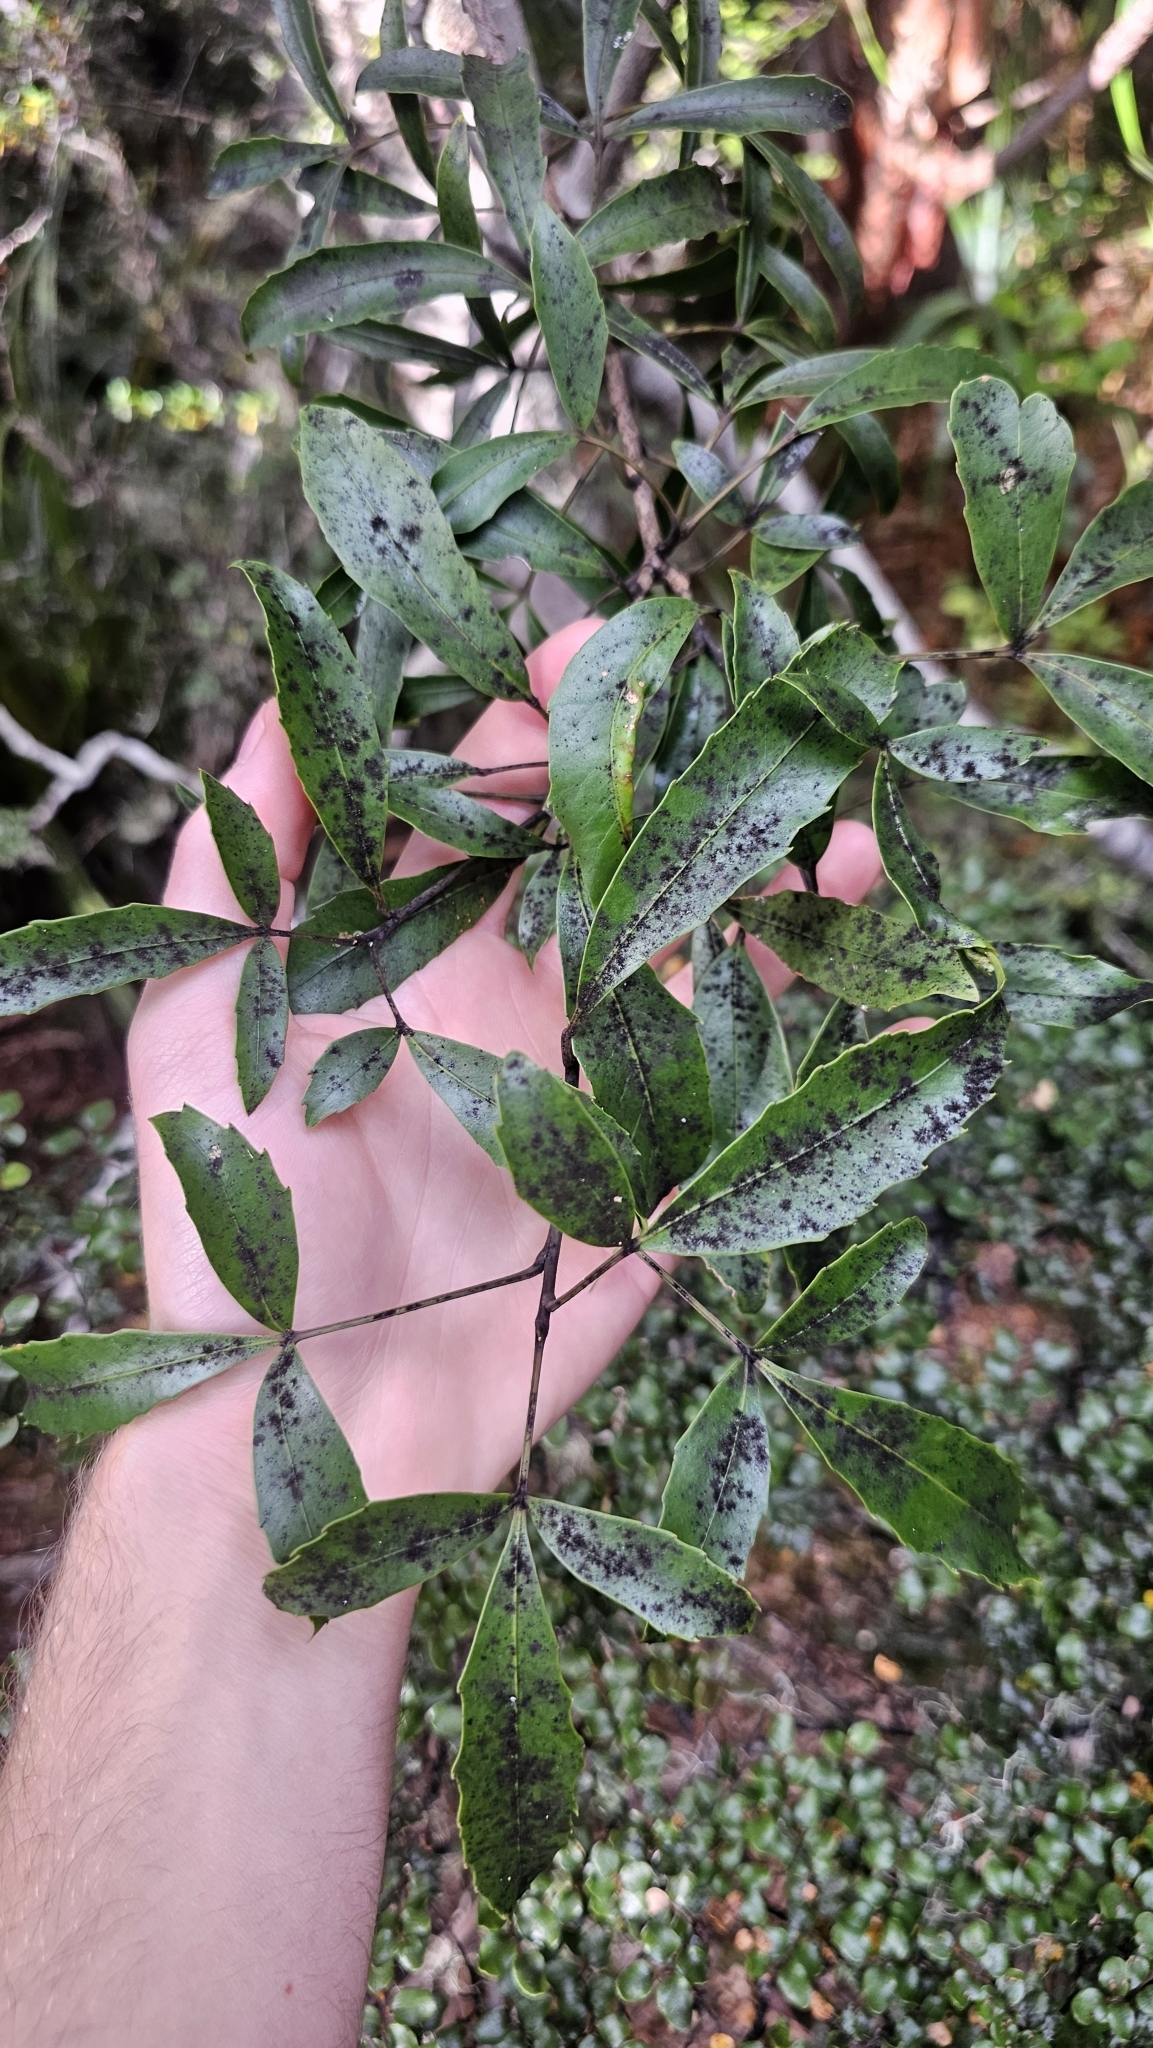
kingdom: Plantae
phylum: Tracheophyta
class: Magnoliopsida
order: Apiales
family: Araliaceae
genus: Raukaua
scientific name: Raukaua simplex
